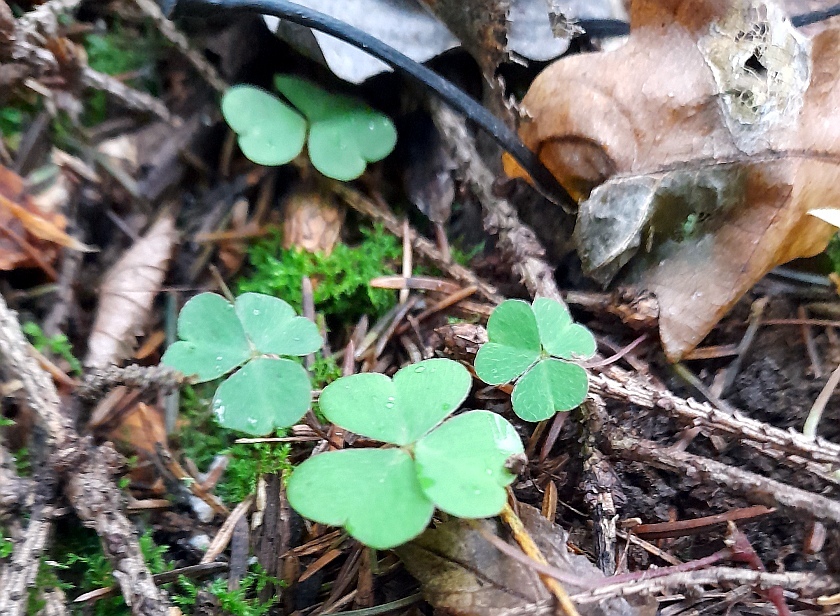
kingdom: Plantae
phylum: Tracheophyta
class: Magnoliopsida
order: Oxalidales
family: Oxalidaceae
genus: Oxalis
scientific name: Oxalis acetosella
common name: Wood-sorrel
